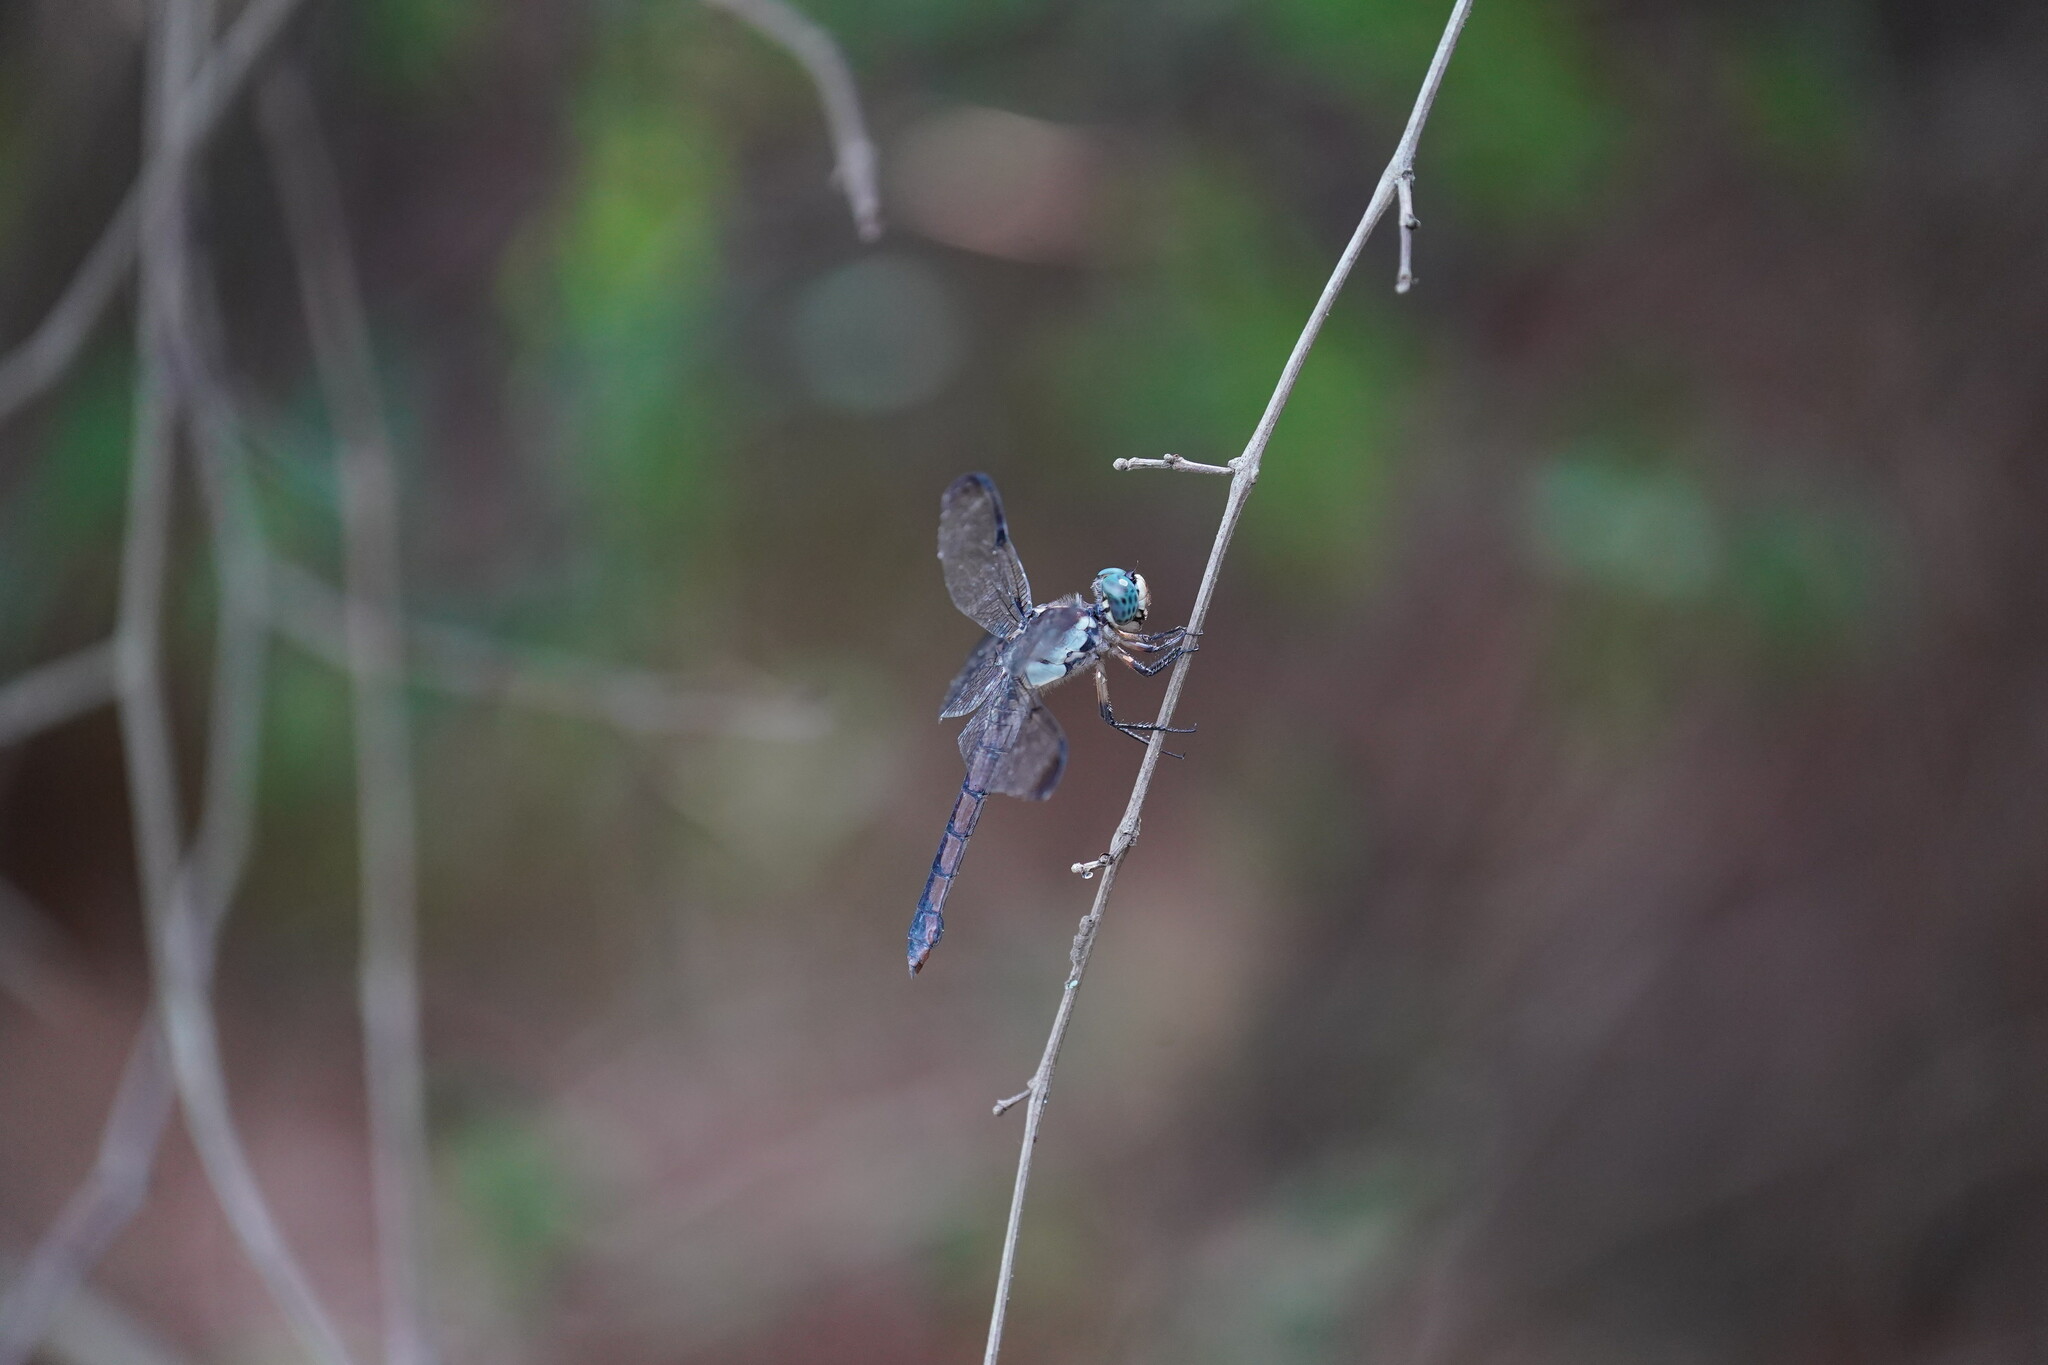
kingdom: Animalia
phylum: Arthropoda
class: Insecta
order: Odonata
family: Libellulidae
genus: Libellula
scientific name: Libellula vibrans
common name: Great blue skimmer
